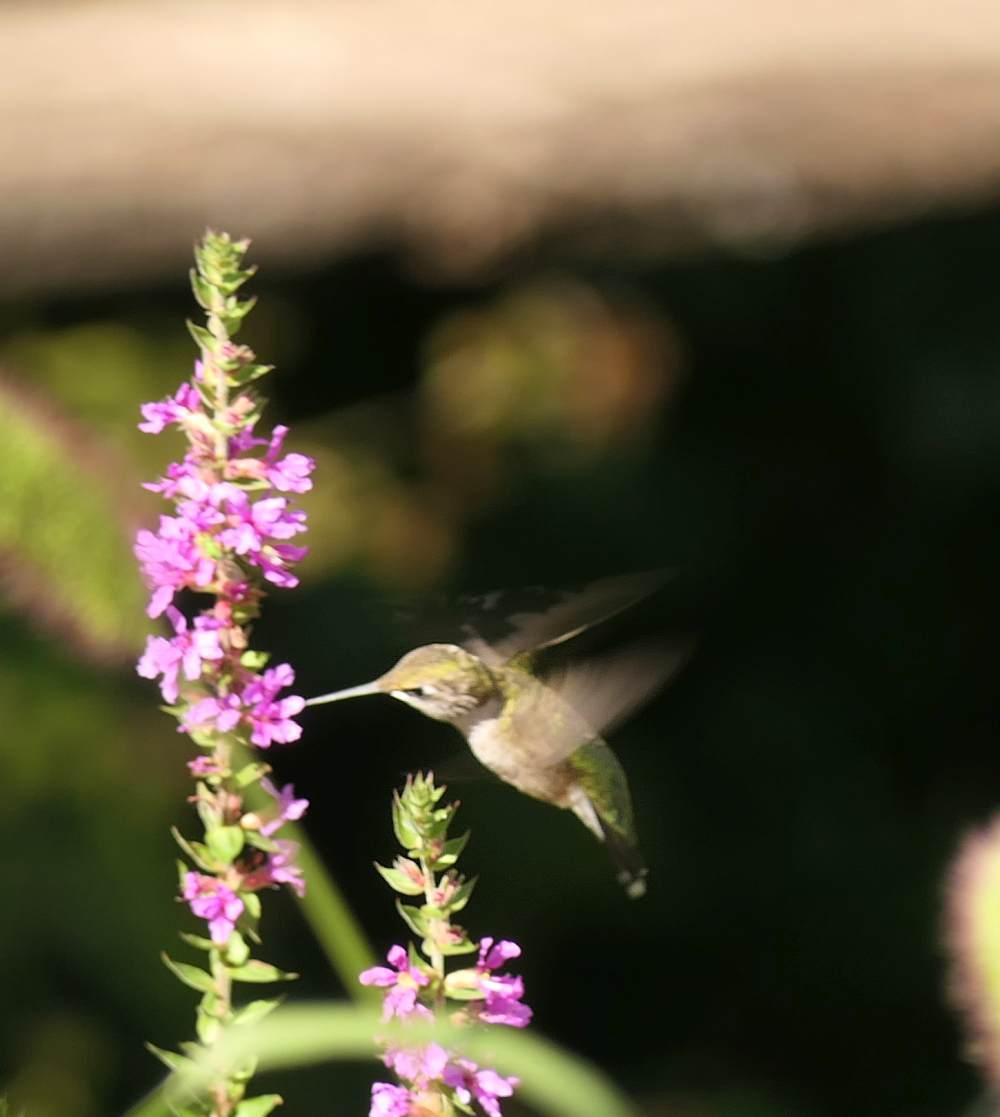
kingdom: Animalia
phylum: Chordata
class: Aves
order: Apodiformes
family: Trochilidae
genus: Archilochus
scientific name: Archilochus colubris
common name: Ruby-throated hummingbird
